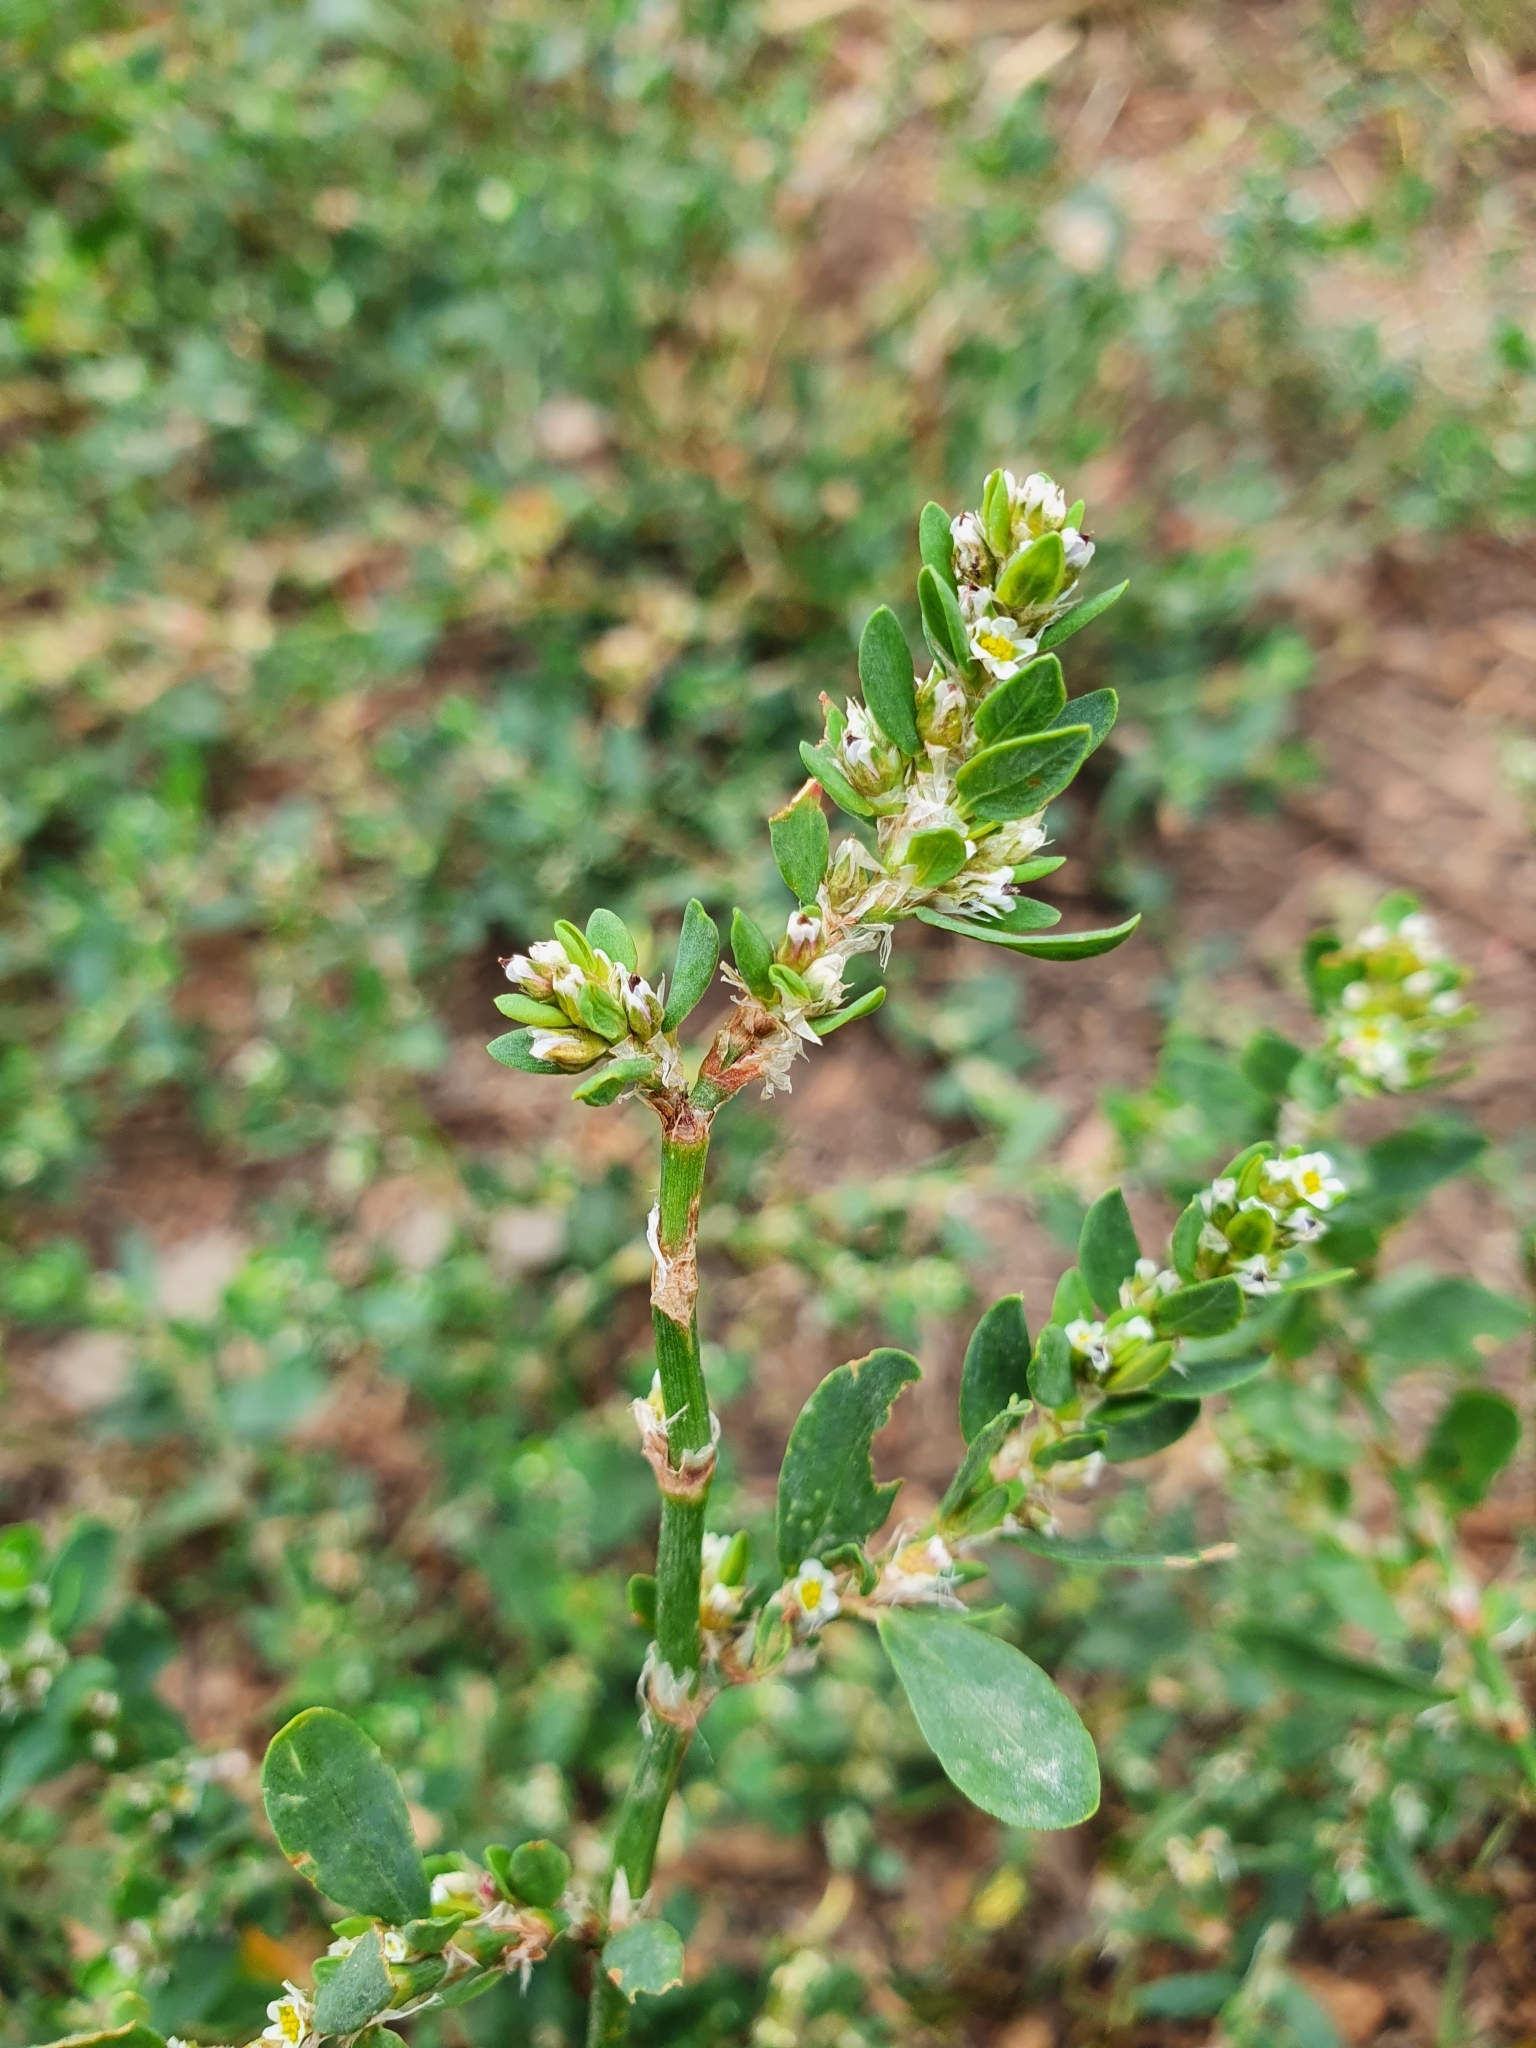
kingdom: Plantae
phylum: Tracheophyta
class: Magnoliopsida
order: Caryophyllales
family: Polygonaceae
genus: Polygonum
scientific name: Polygonum
